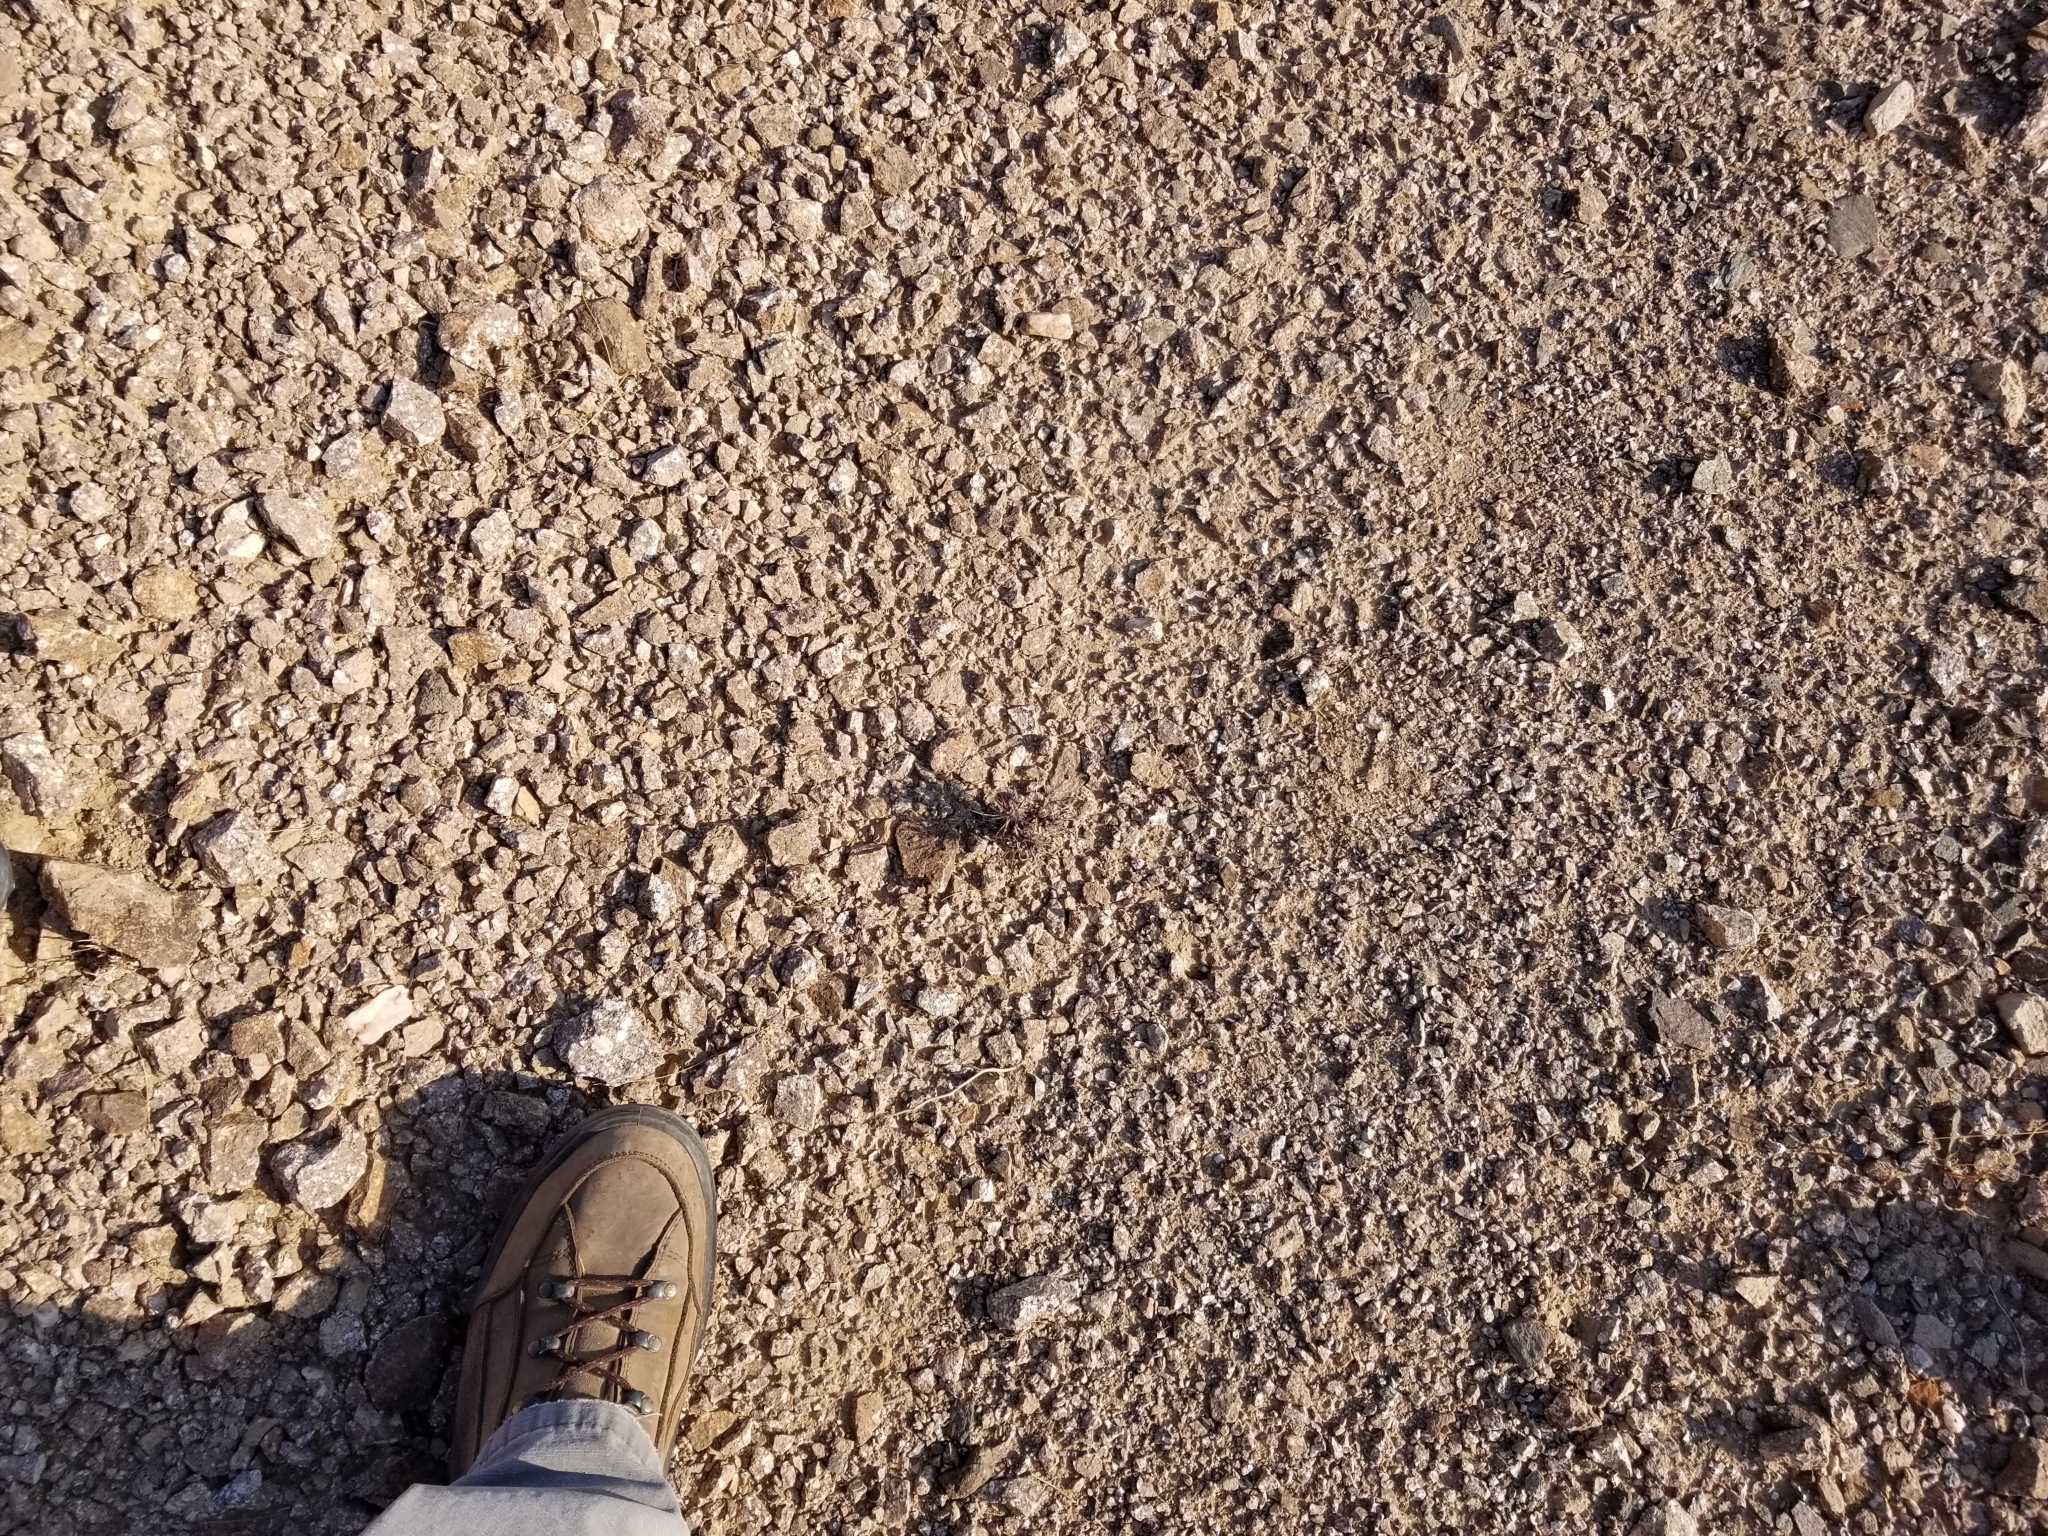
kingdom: Plantae
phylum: Tracheophyta
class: Magnoliopsida
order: Caryophyllales
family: Polygonaceae
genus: Chorizanthe
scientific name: Chorizanthe rigida
